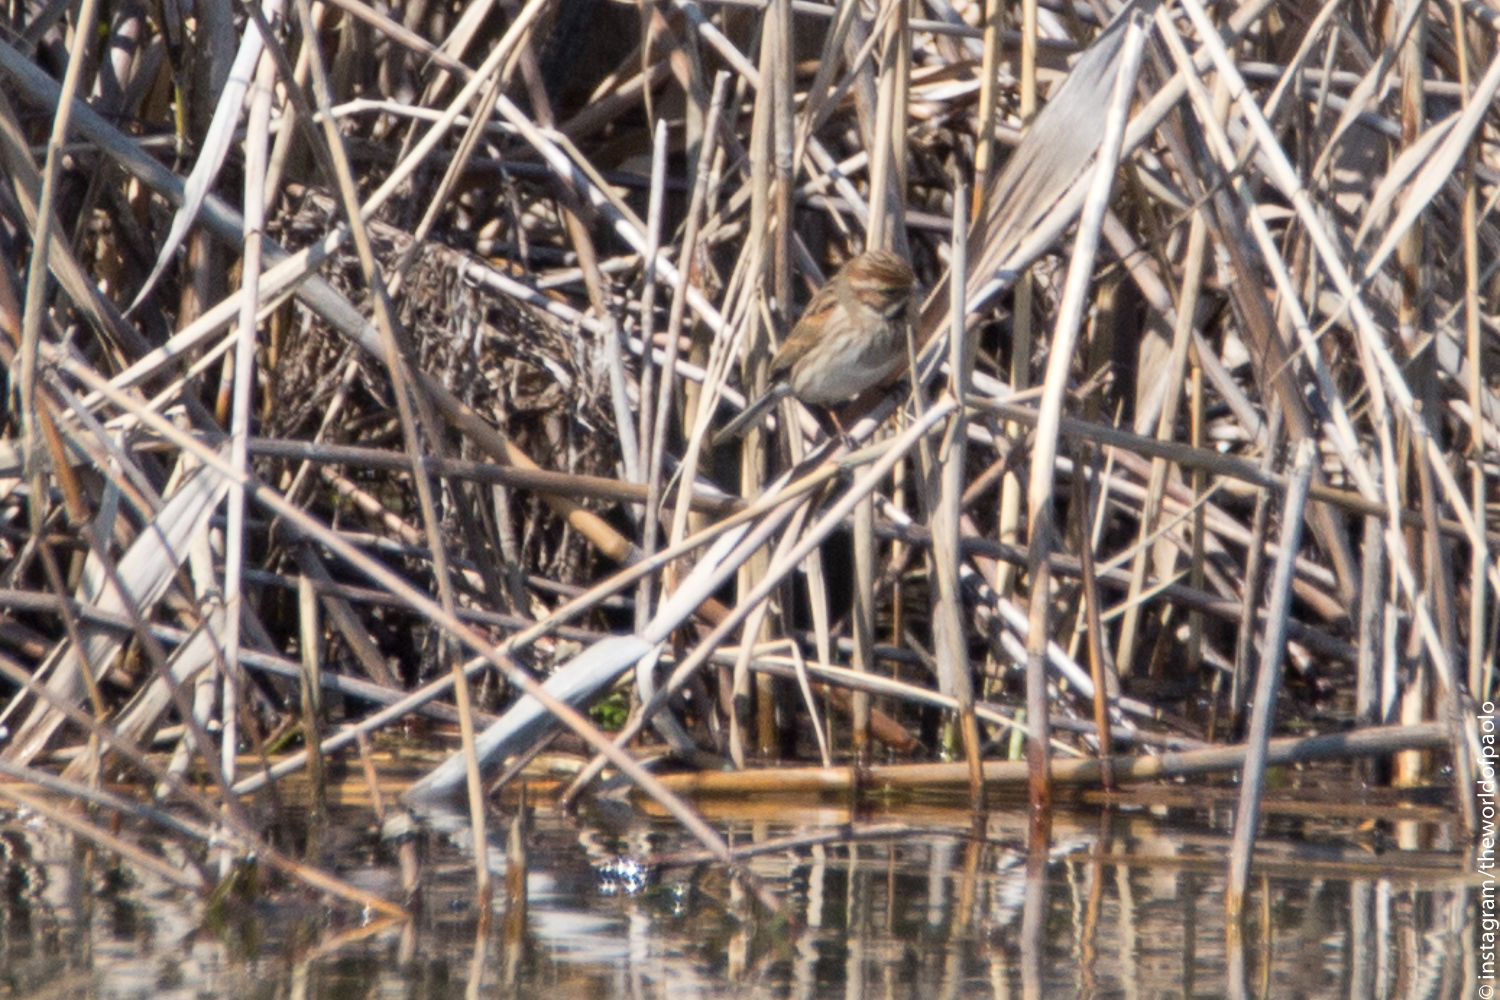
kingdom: Animalia
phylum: Chordata
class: Aves
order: Passeriformes
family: Emberizidae
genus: Emberiza
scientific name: Emberiza schoeniclus
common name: Reed bunting
